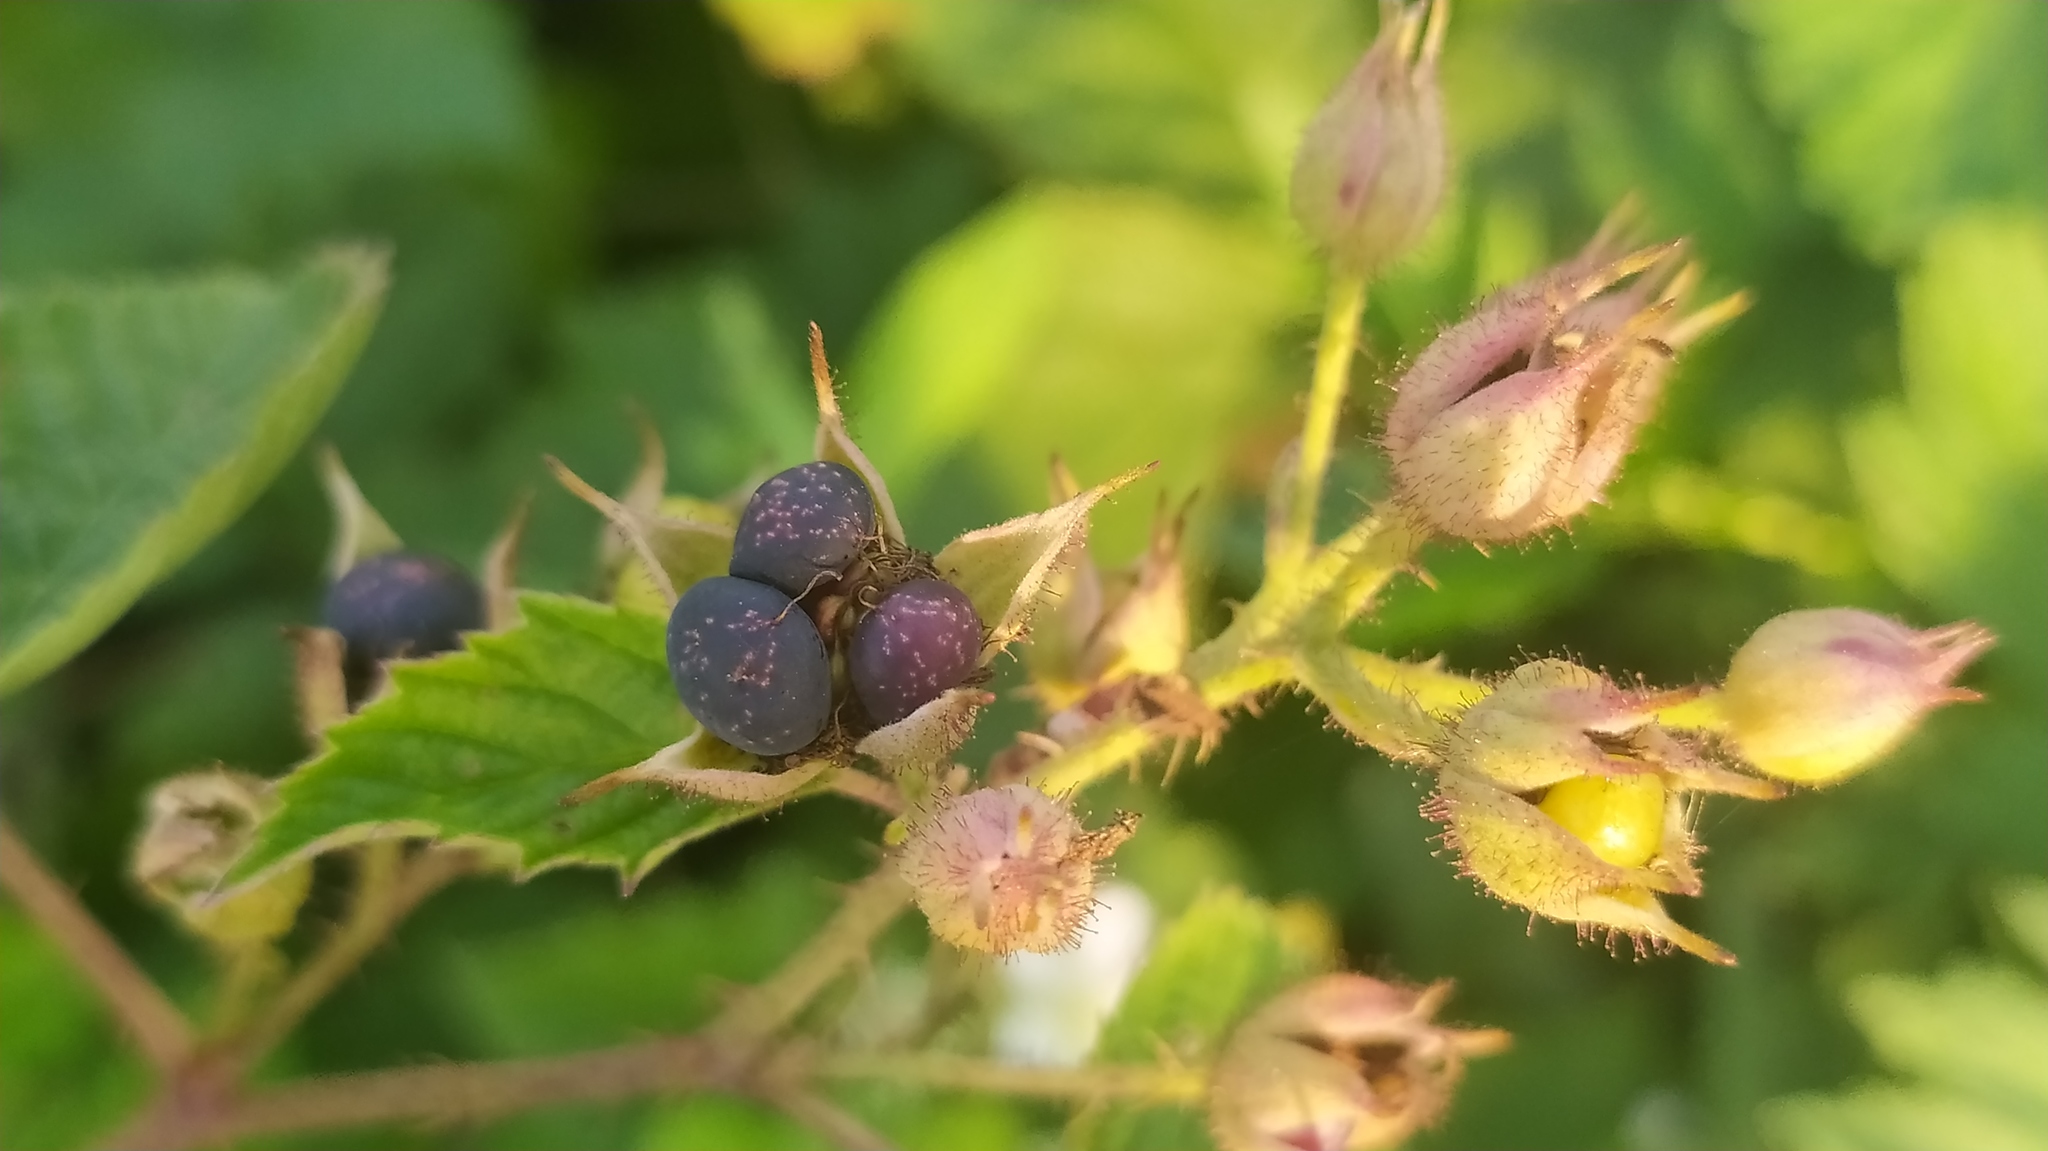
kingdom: Plantae
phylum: Tracheophyta
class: Magnoliopsida
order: Rosales
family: Rosaceae
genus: Rubus
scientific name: Rubus caesius
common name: Dewberry
